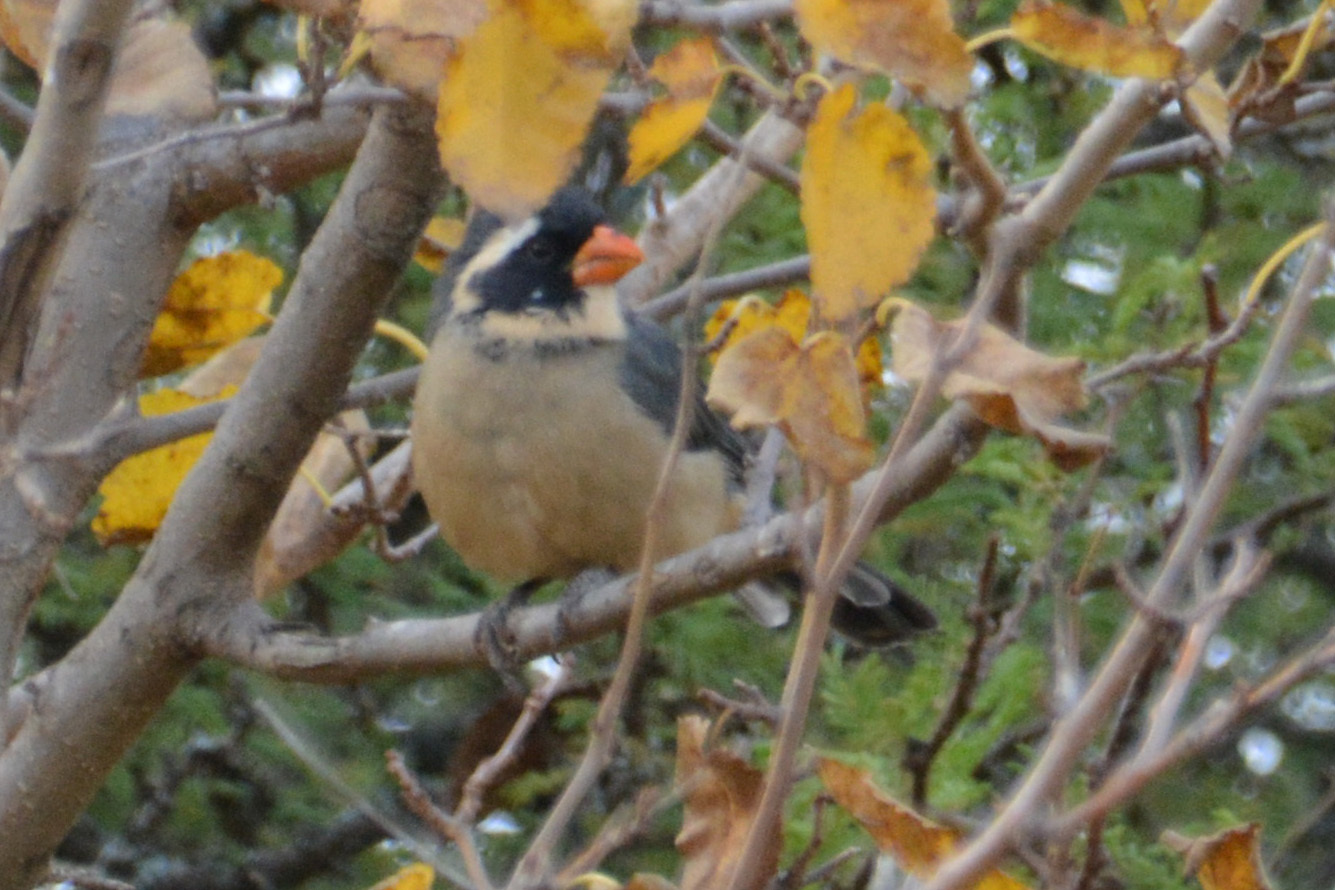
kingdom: Animalia
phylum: Chordata
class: Aves
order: Passeriformes
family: Thraupidae
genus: Saltator
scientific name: Saltator aurantiirostris
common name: Golden-billed saltator
